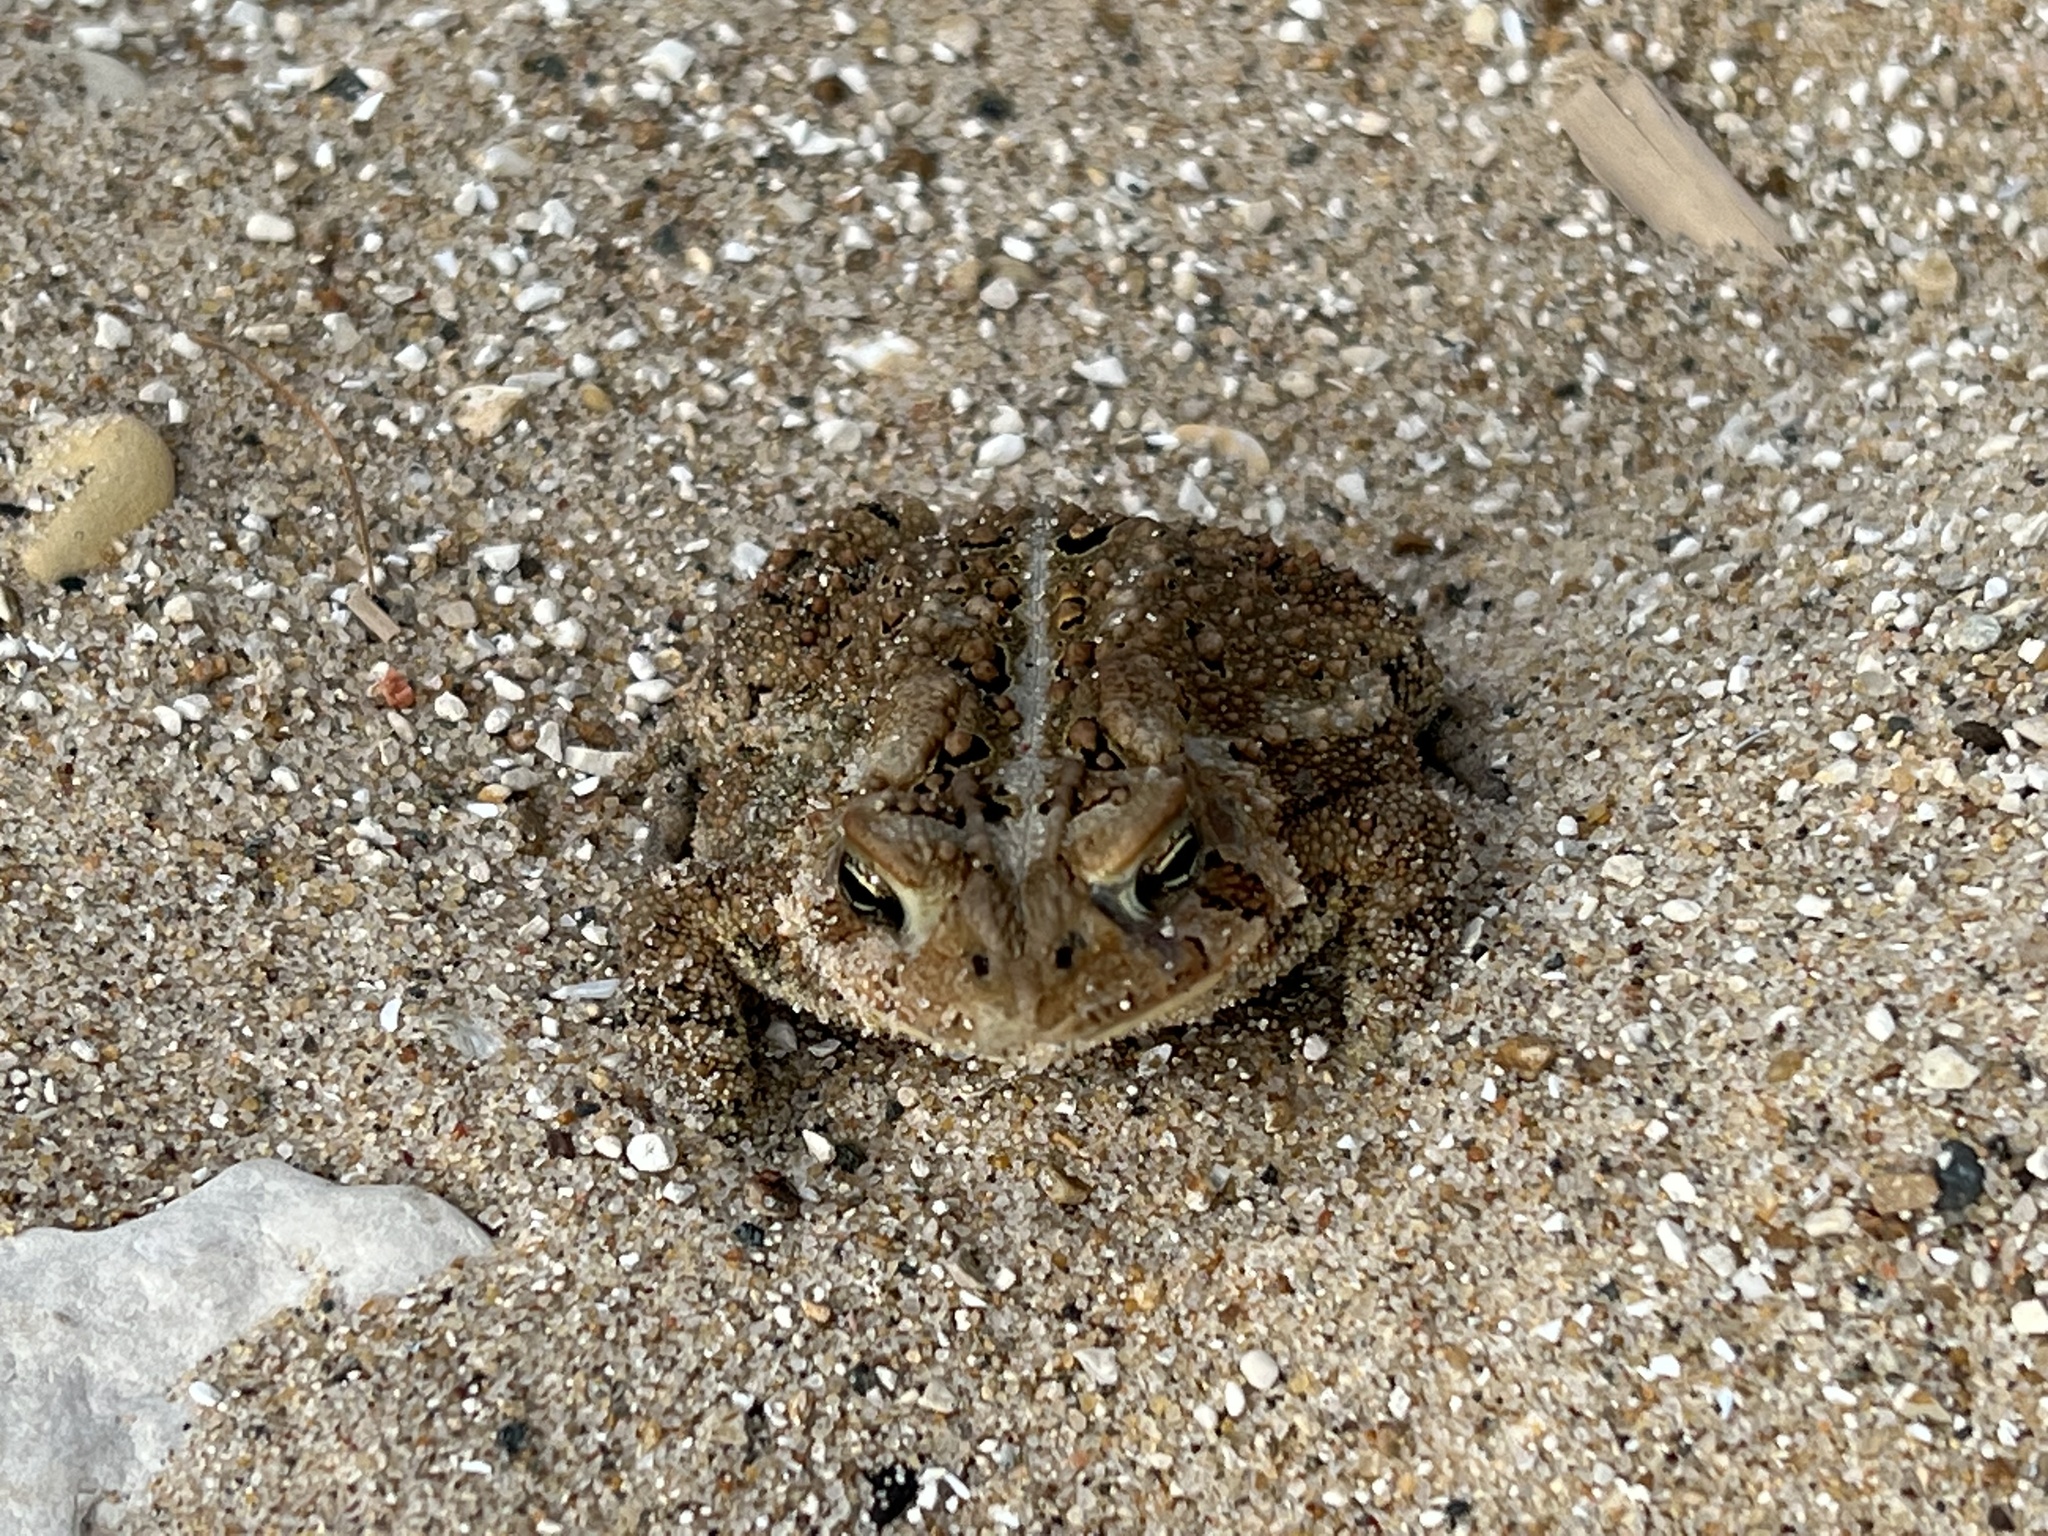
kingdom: Animalia
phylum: Chordata
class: Amphibia
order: Anura
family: Bufonidae
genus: Anaxyrus
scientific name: Anaxyrus americanus
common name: American toad
